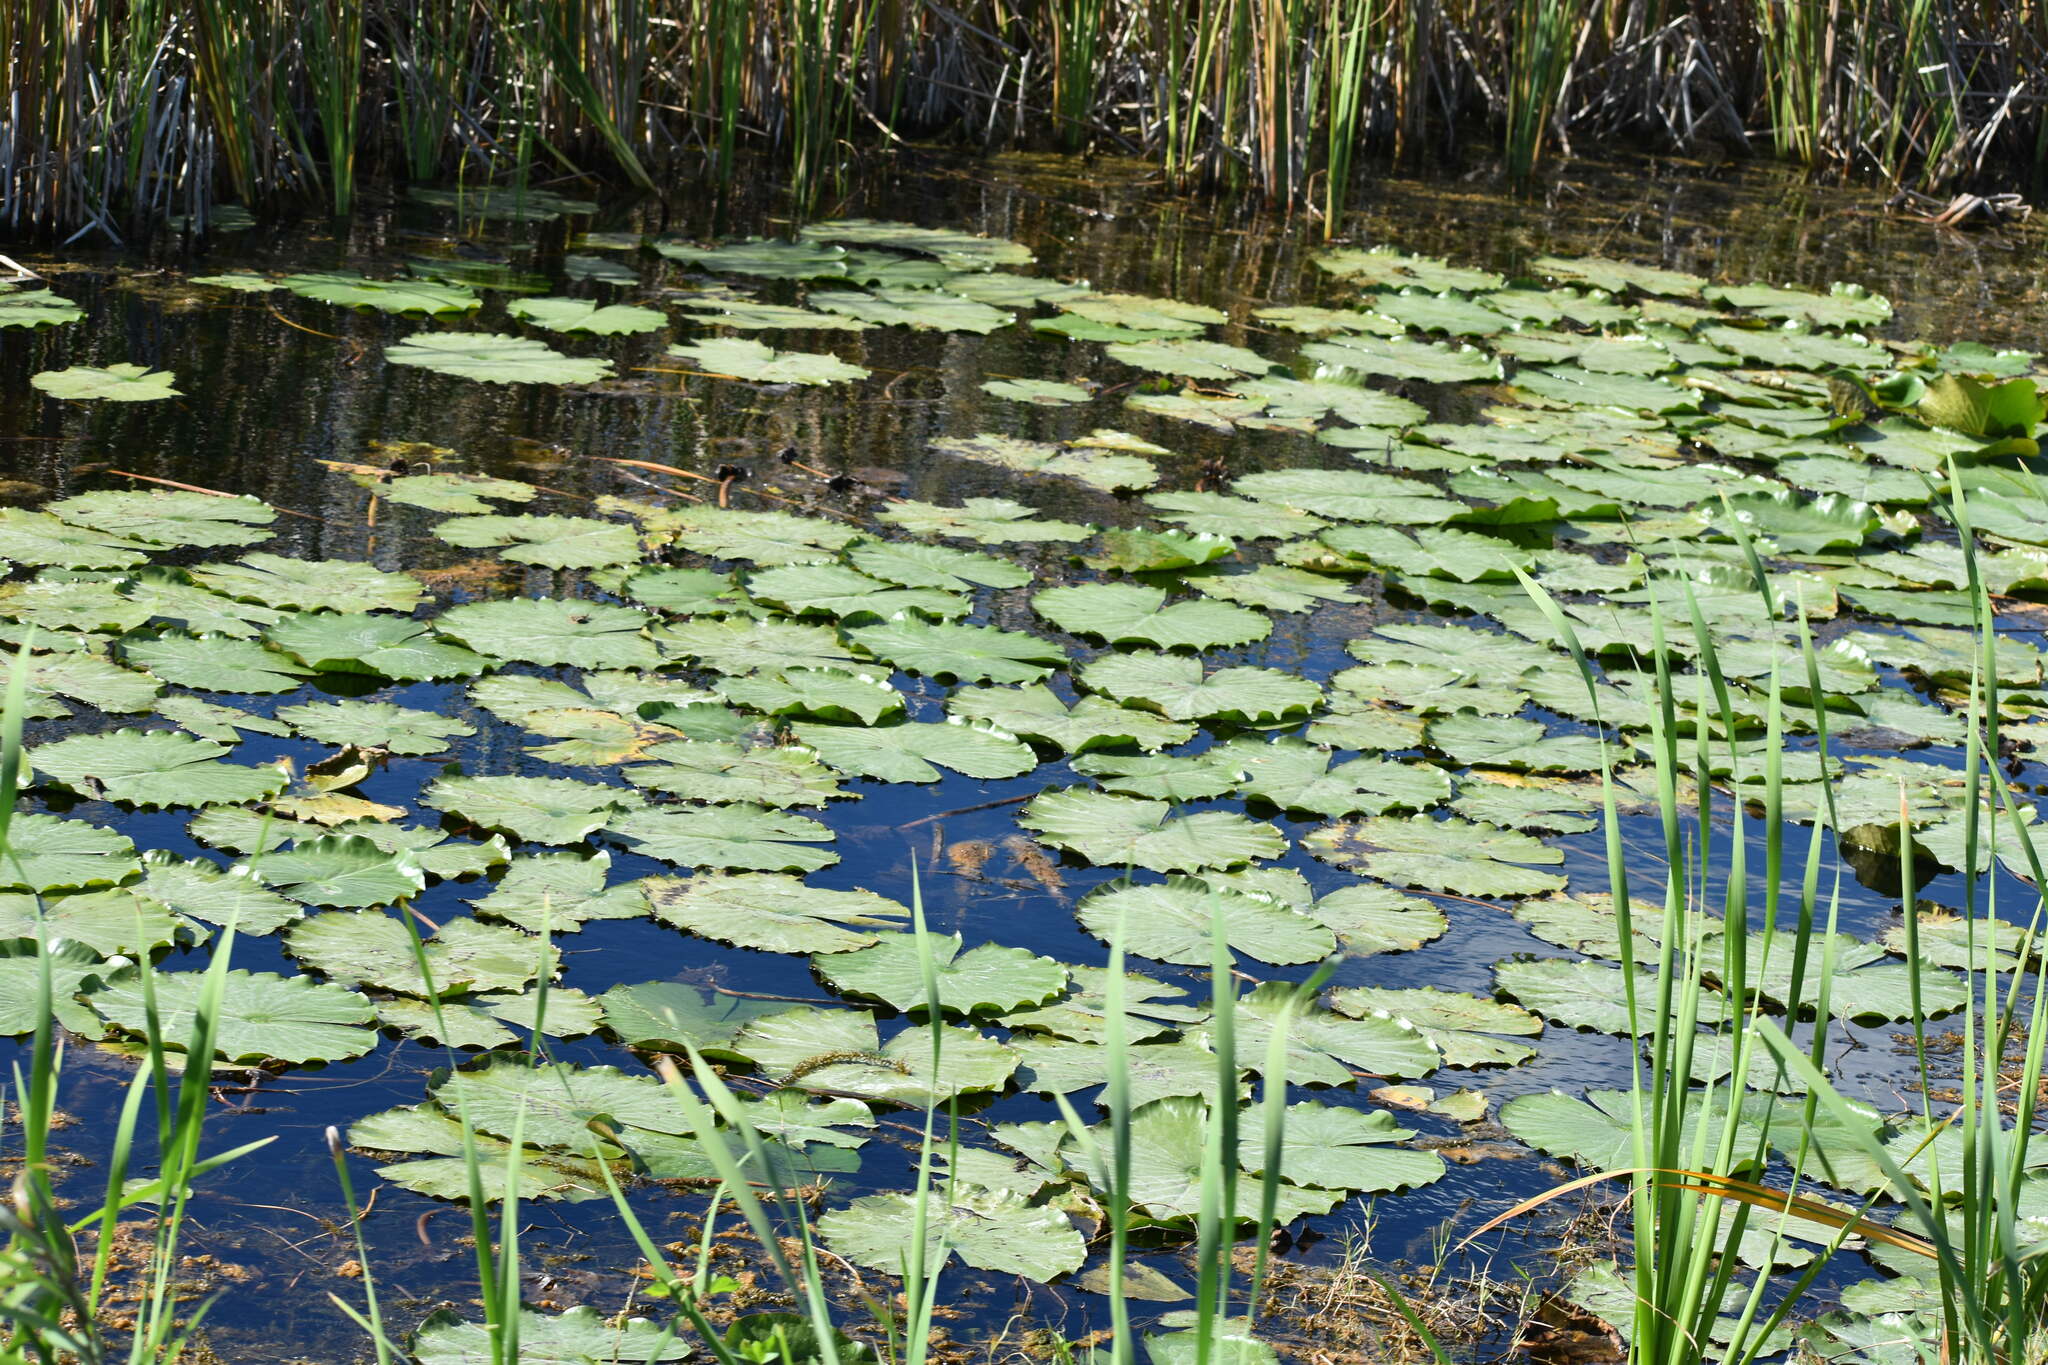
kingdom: Plantae
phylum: Tracheophyta
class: Magnoliopsida
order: Nymphaeales
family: Nymphaeaceae
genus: Nuphar
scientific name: Nuphar advena
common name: Spatter-dock
